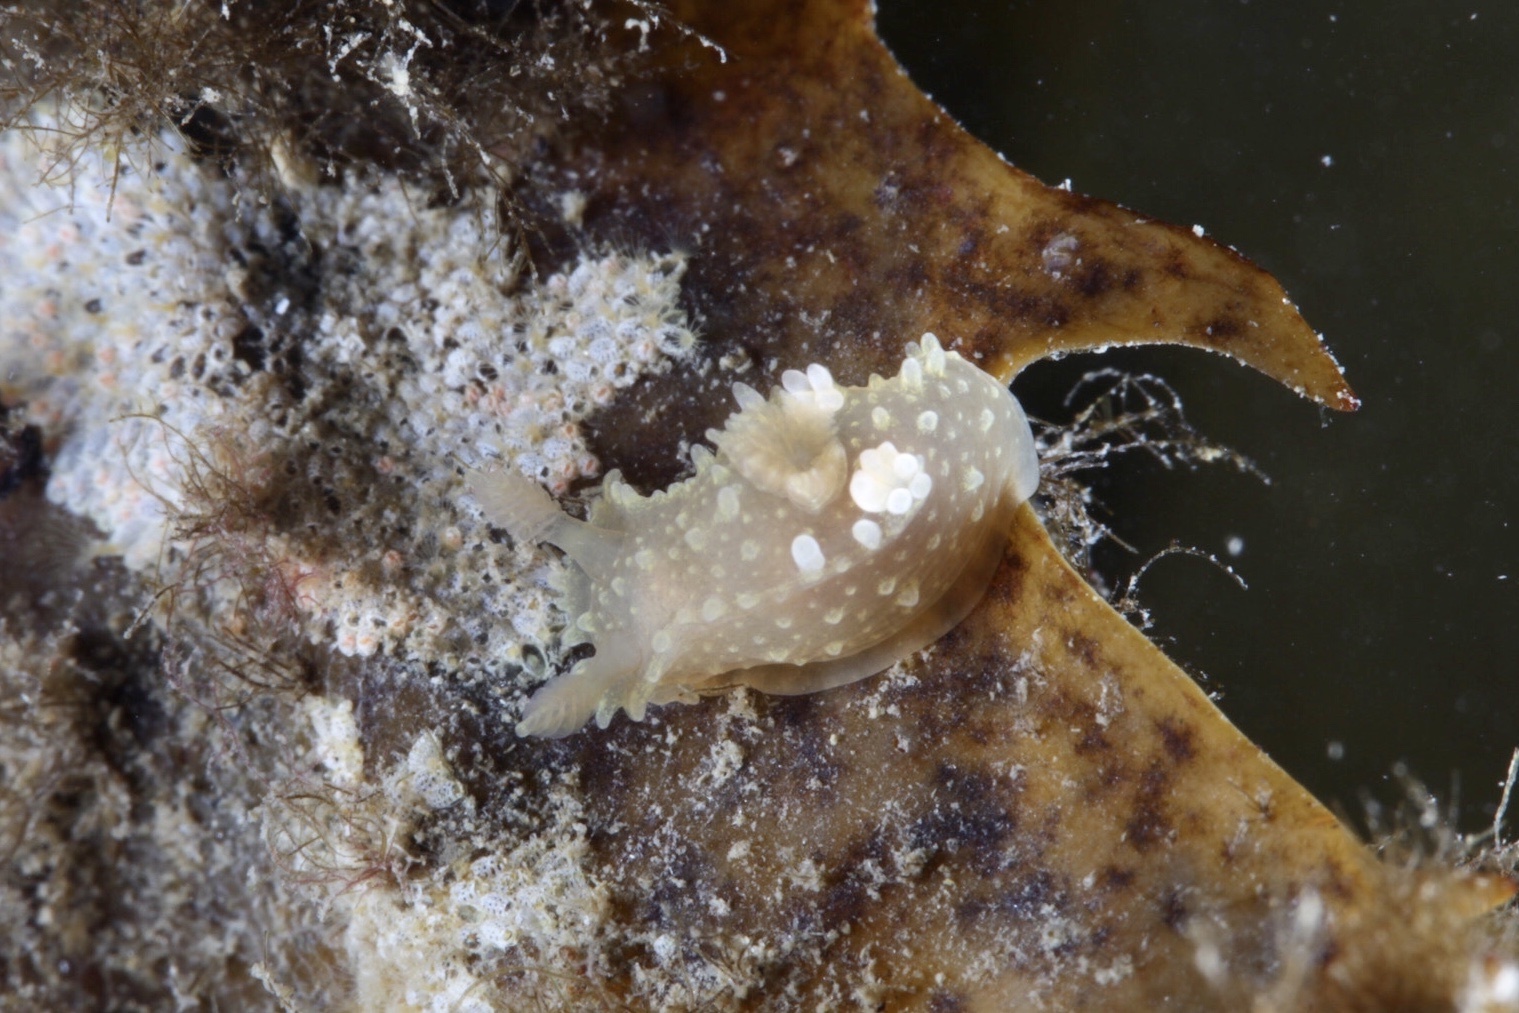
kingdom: Animalia
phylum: Mollusca
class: Gastropoda
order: Nudibranchia
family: Polyceridae
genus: Palio
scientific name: Palio dubia
